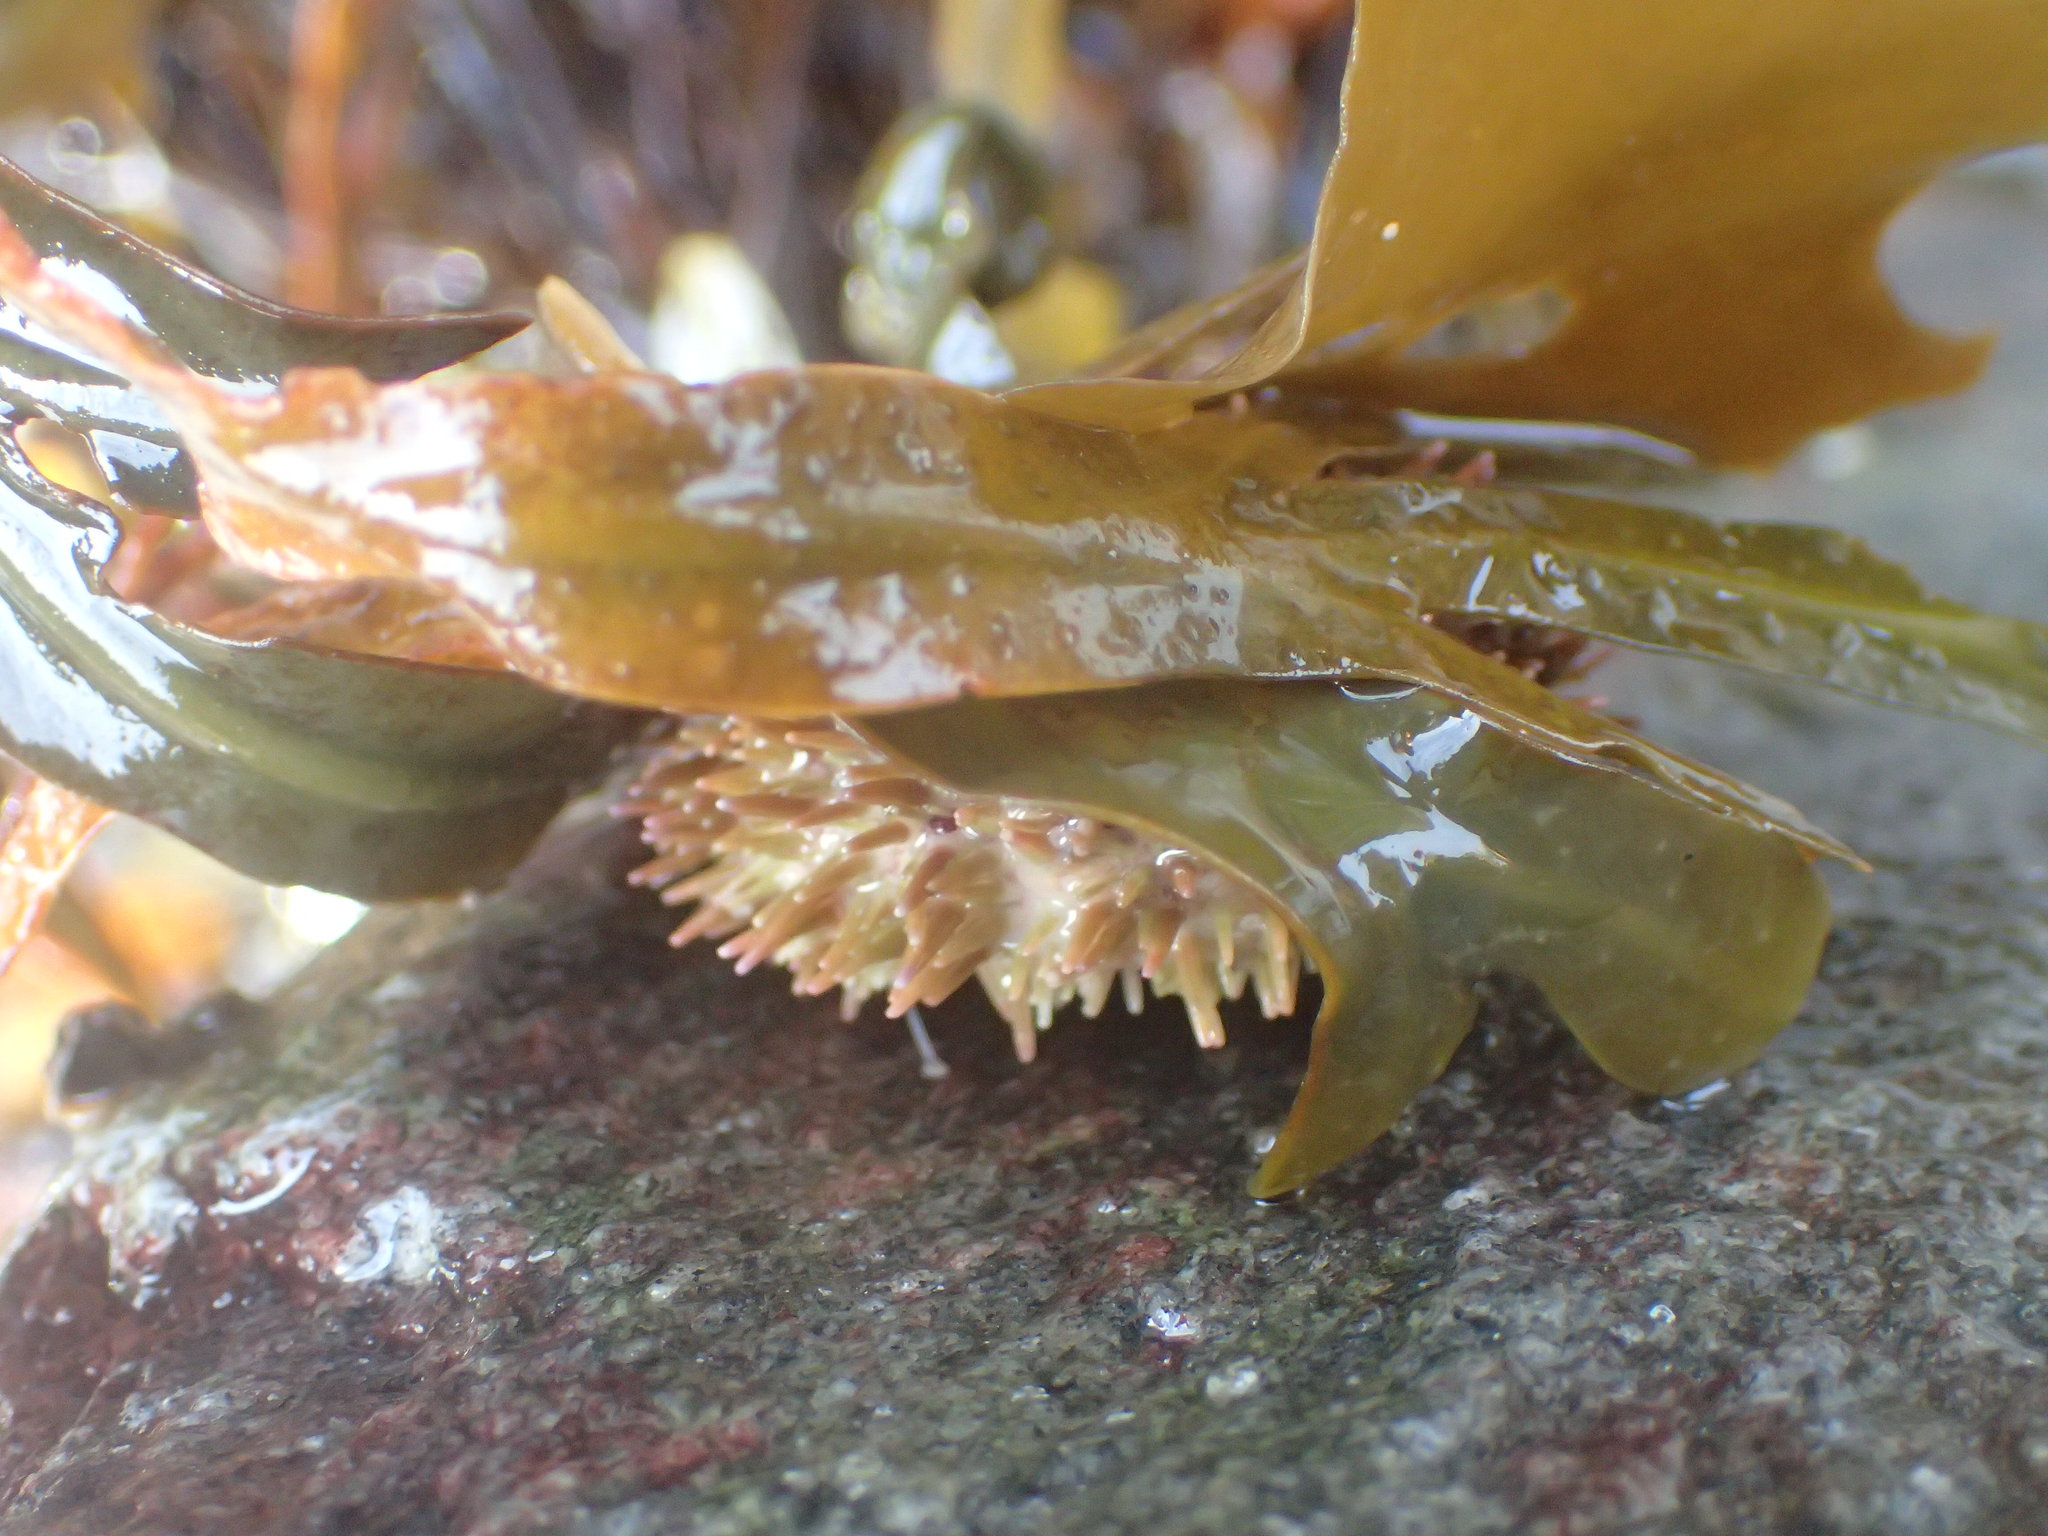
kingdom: Animalia
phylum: Echinodermata
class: Echinoidea
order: Camarodonta
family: Strongylocentrotidae
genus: Strongylocentrotus
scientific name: Strongylocentrotus droebachiensis
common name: Northern sea urchin
